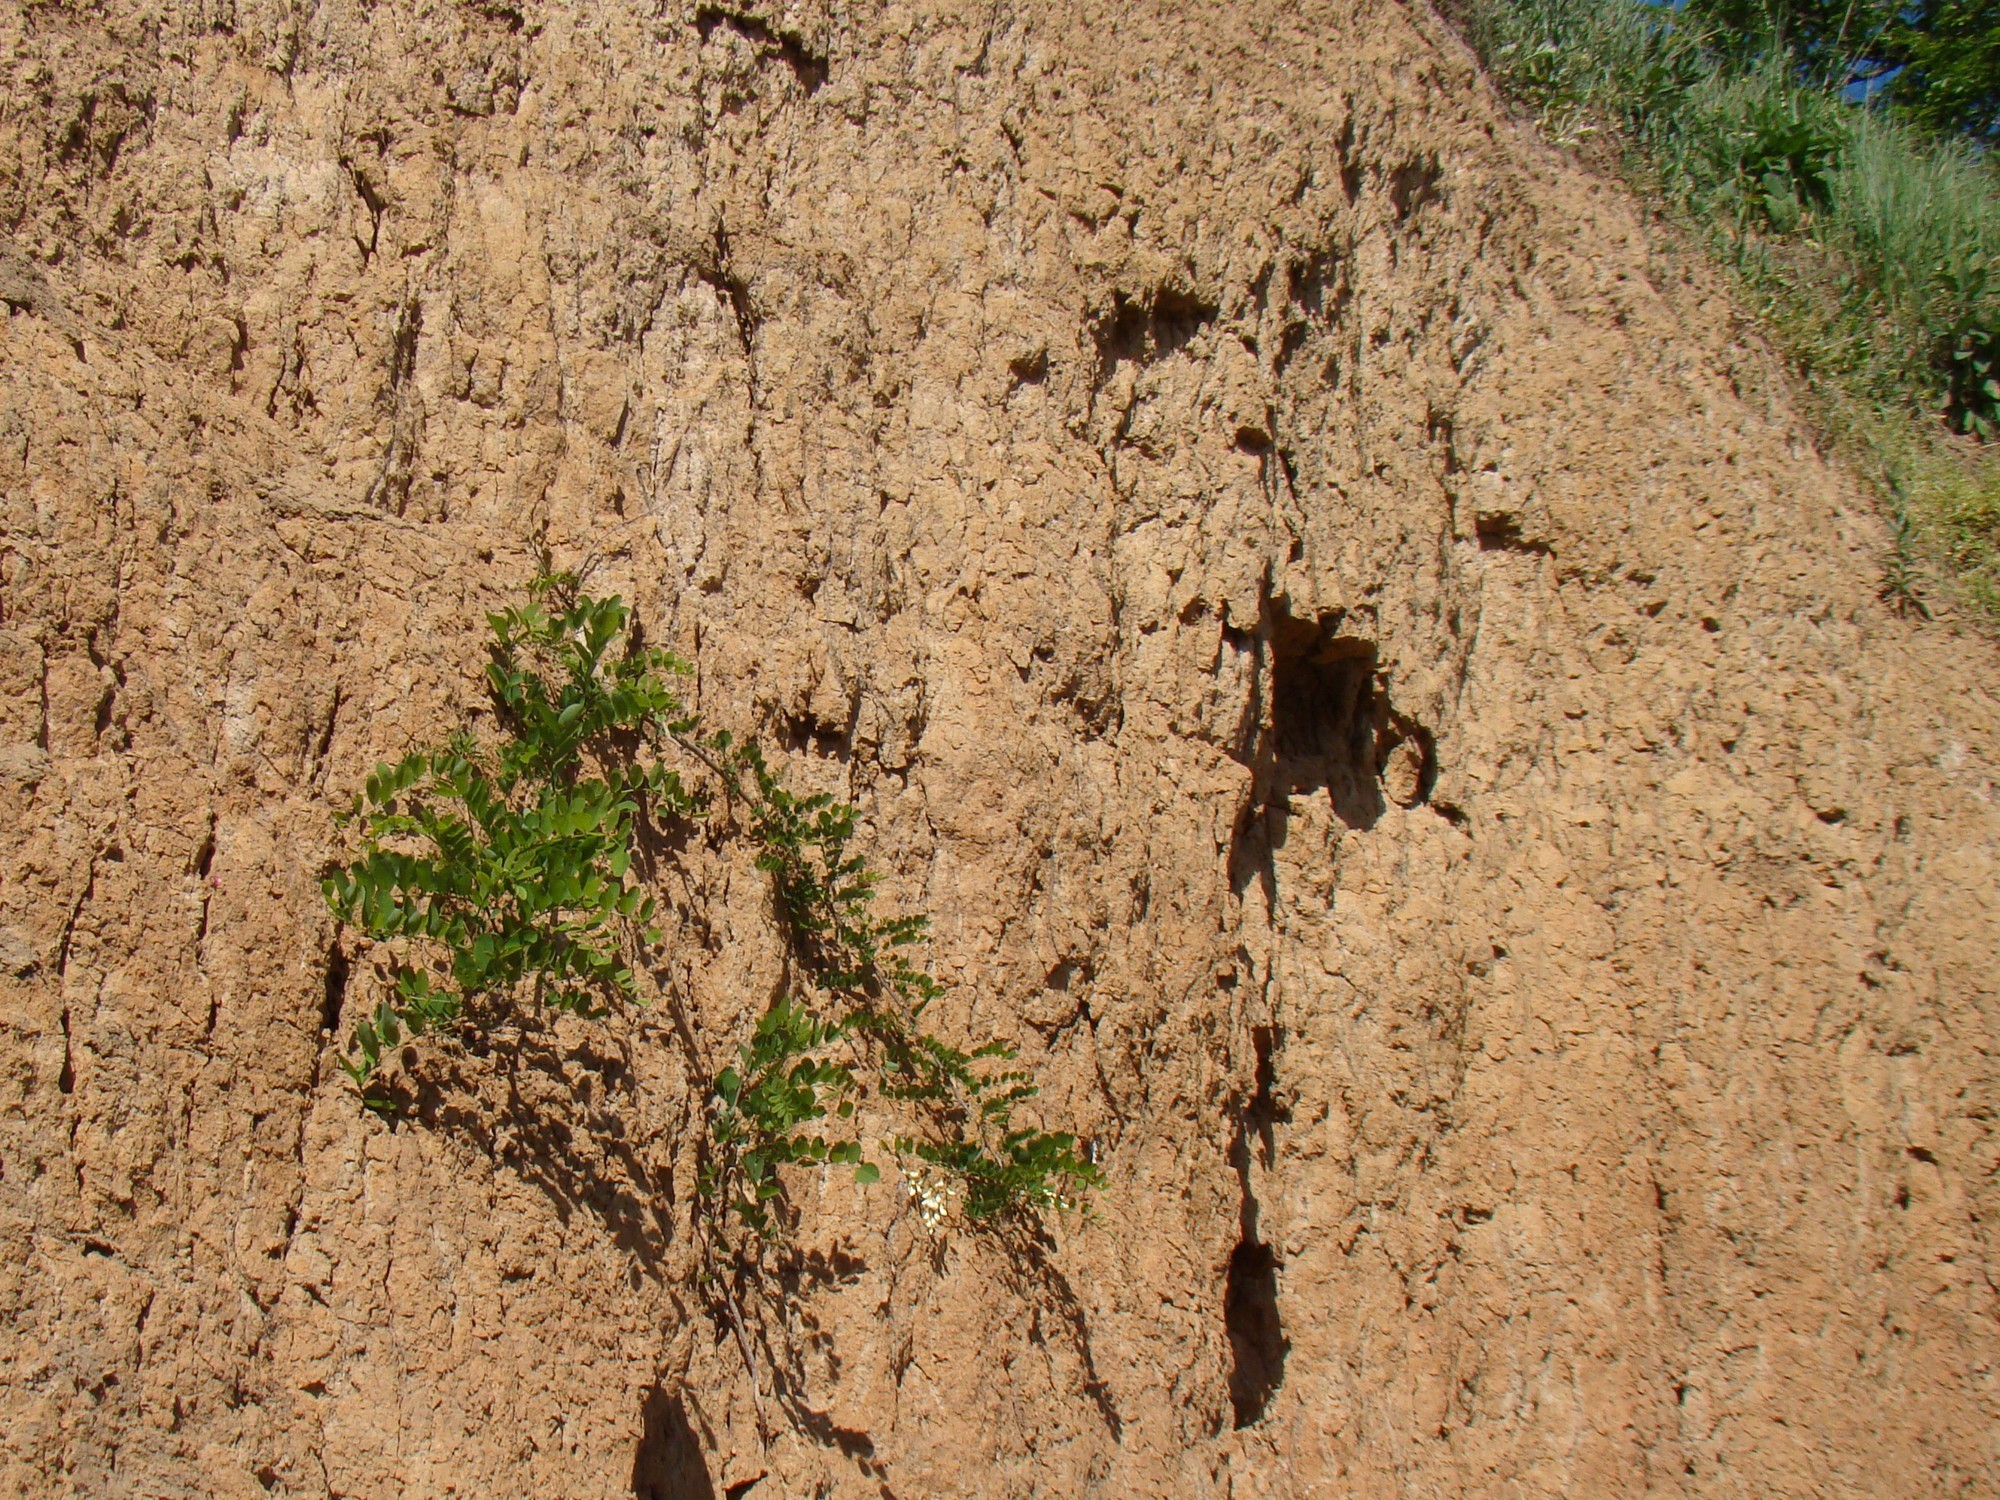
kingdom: Plantae
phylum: Tracheophyta
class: Magnoliopsida
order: Fabales
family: Fabaceae
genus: Robinia
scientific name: Robinia pseudoacacia
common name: Black locust
